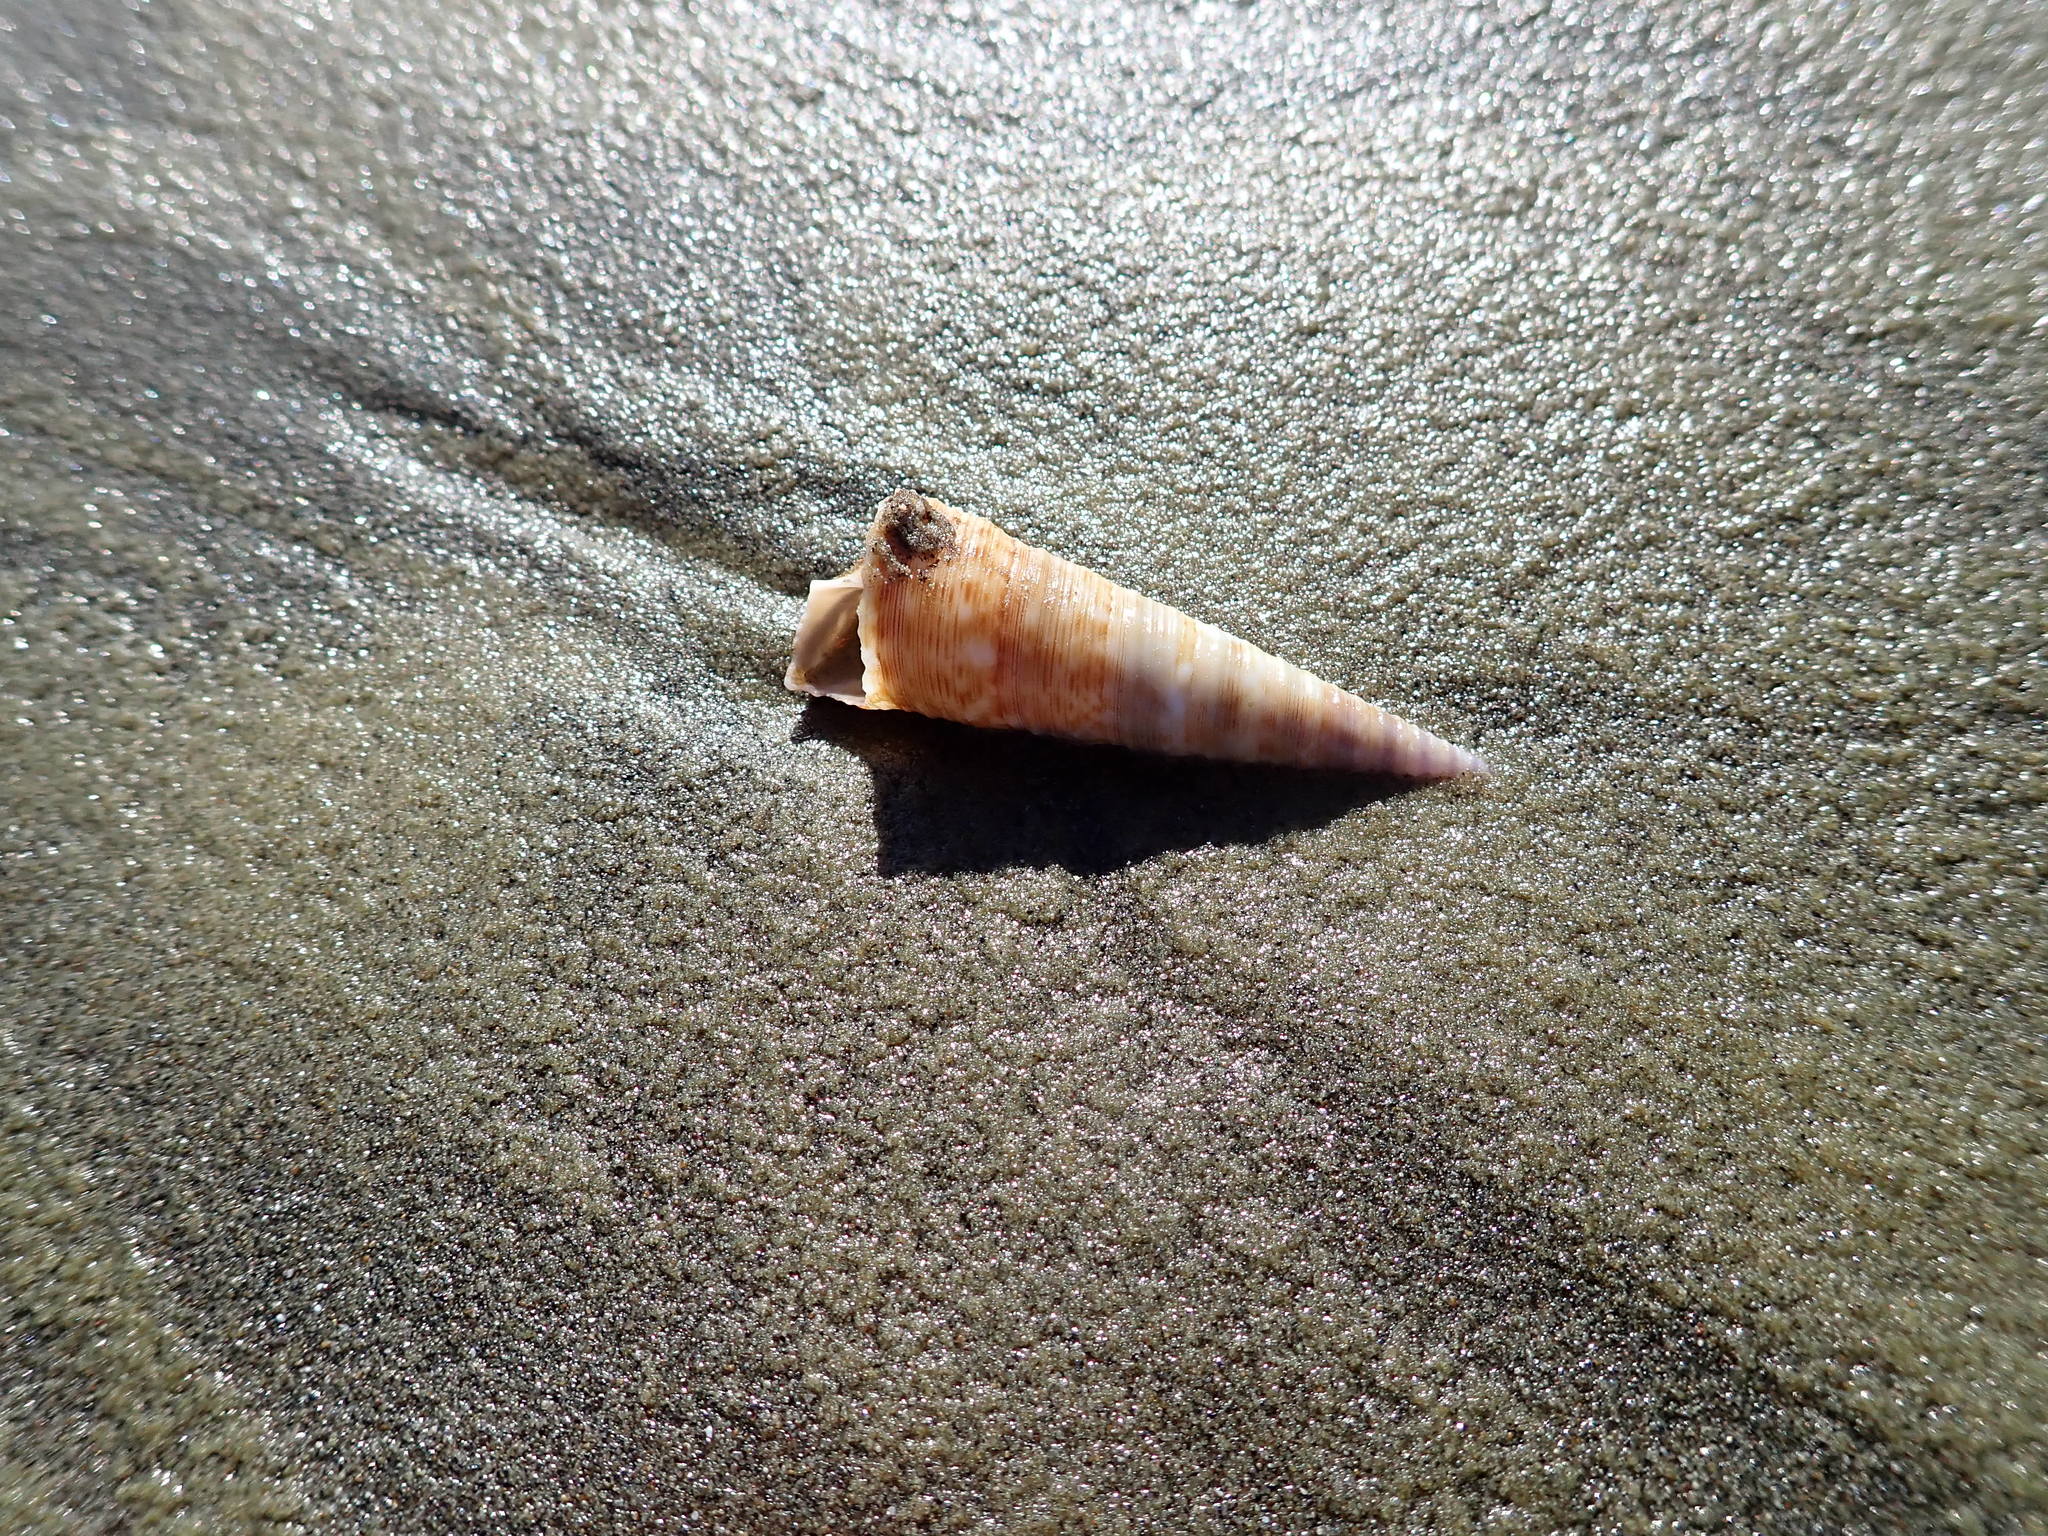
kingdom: Animalia
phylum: Mollusca
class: Gastropoda
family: Turritellidae
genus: Maoricolpus
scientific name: Maoricolpus roseus
